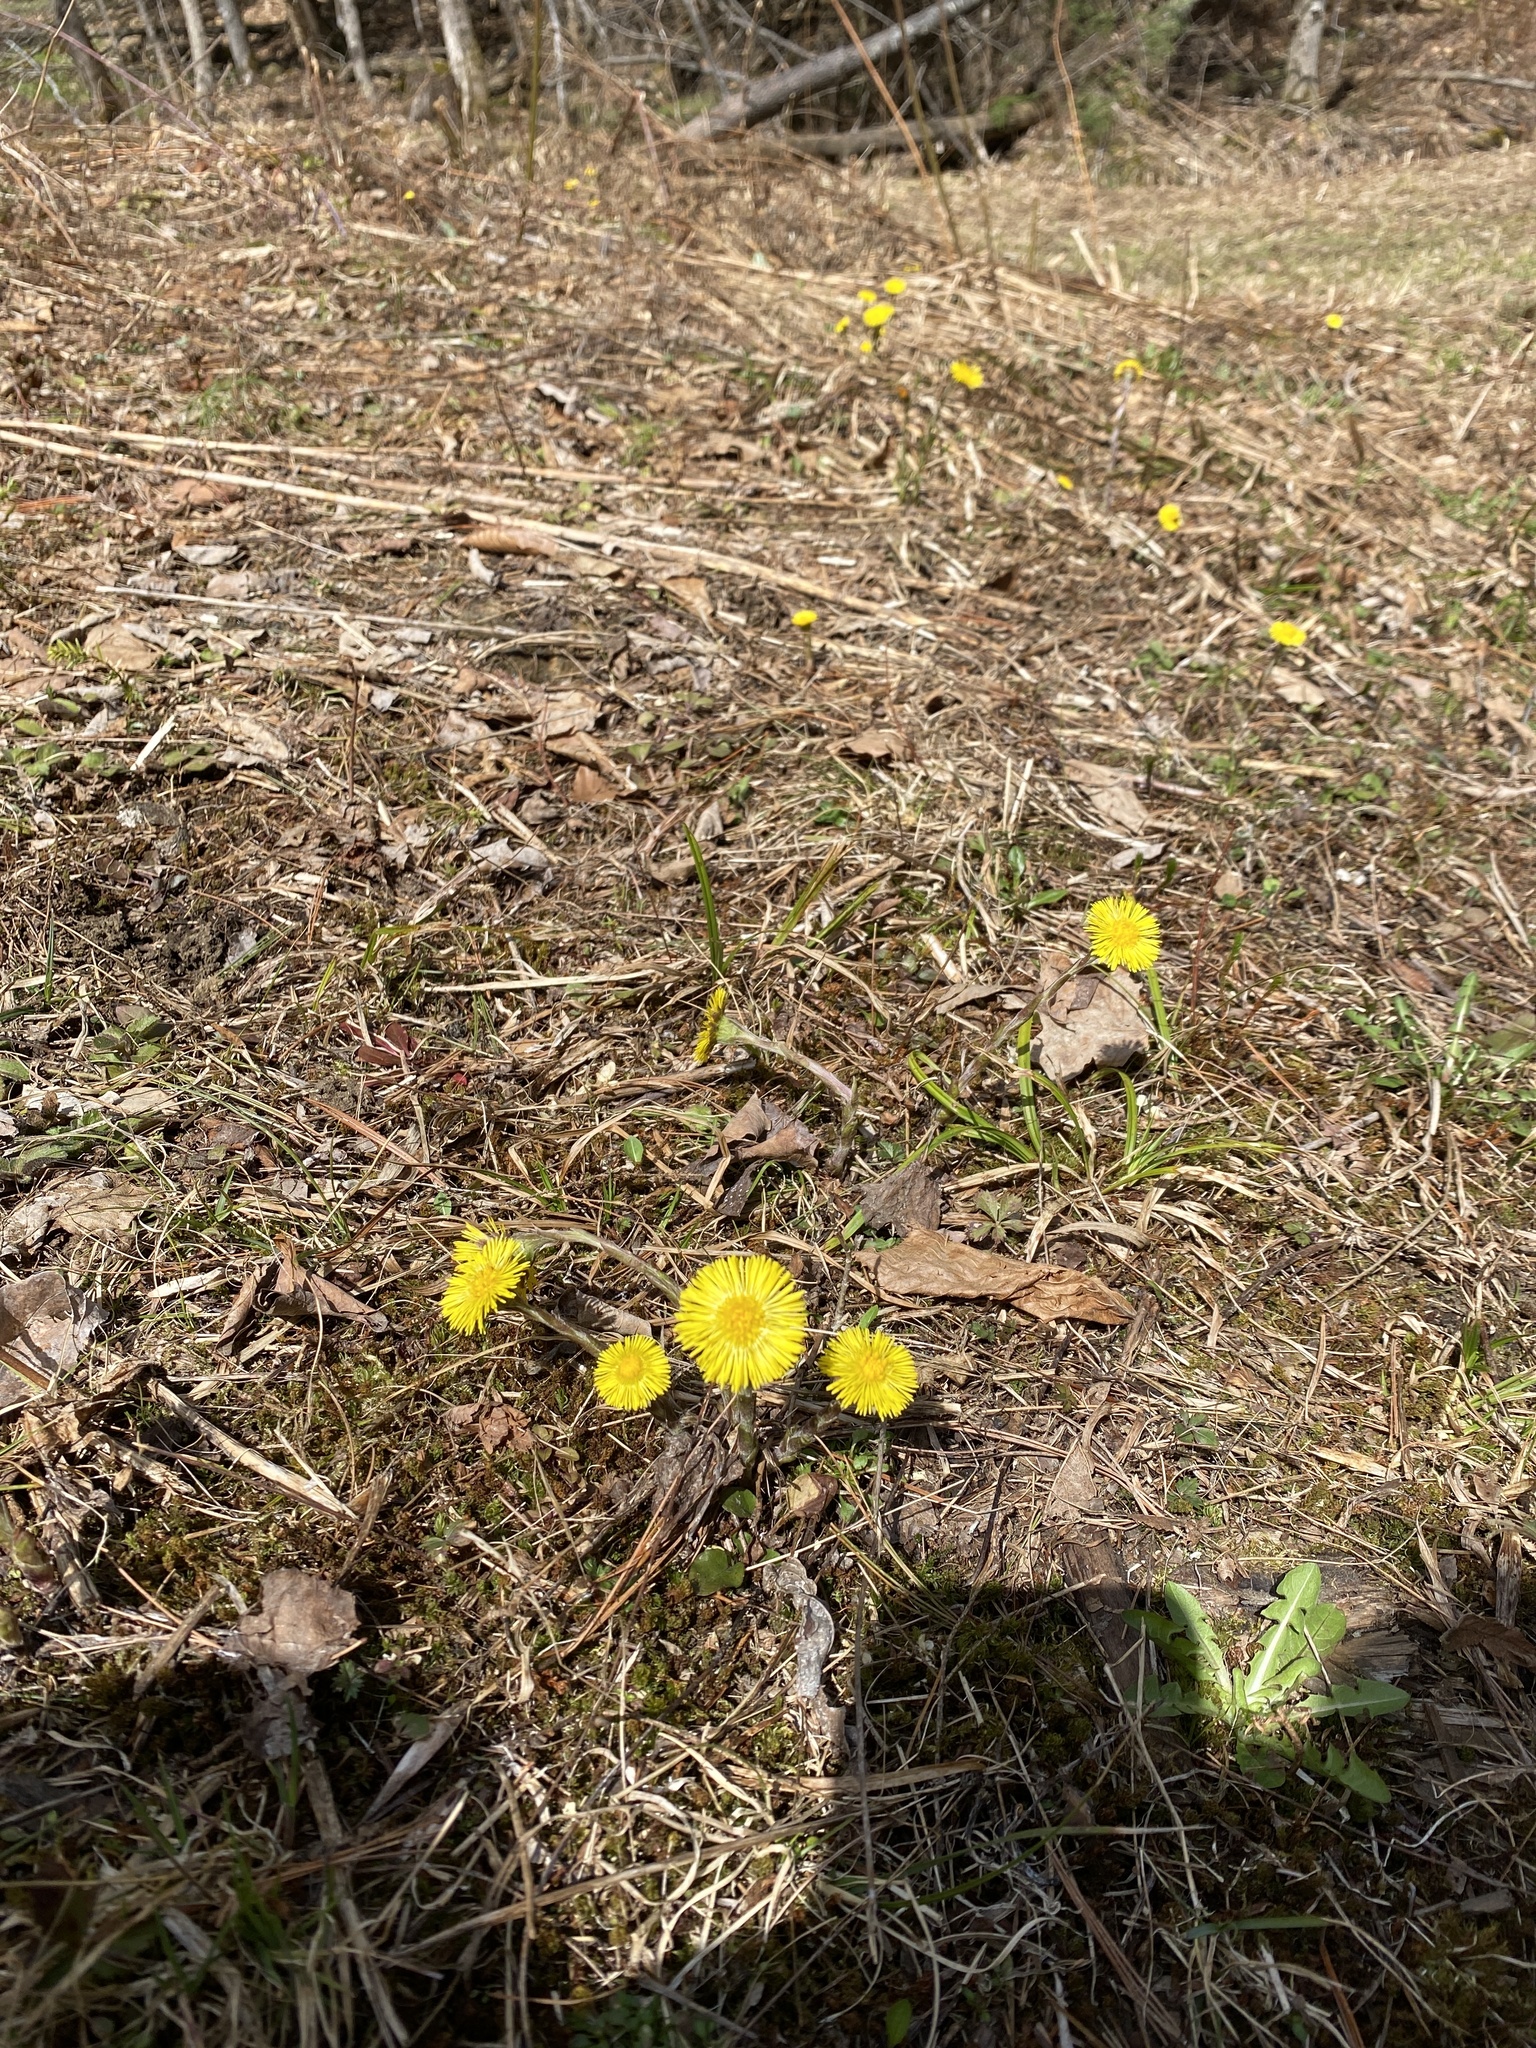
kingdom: Plantae
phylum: Tracheophyta
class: Magnoliopsida
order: Asterales
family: Asteraceae
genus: Tussilago
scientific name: Tussilago farfara
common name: Coltsfoot
